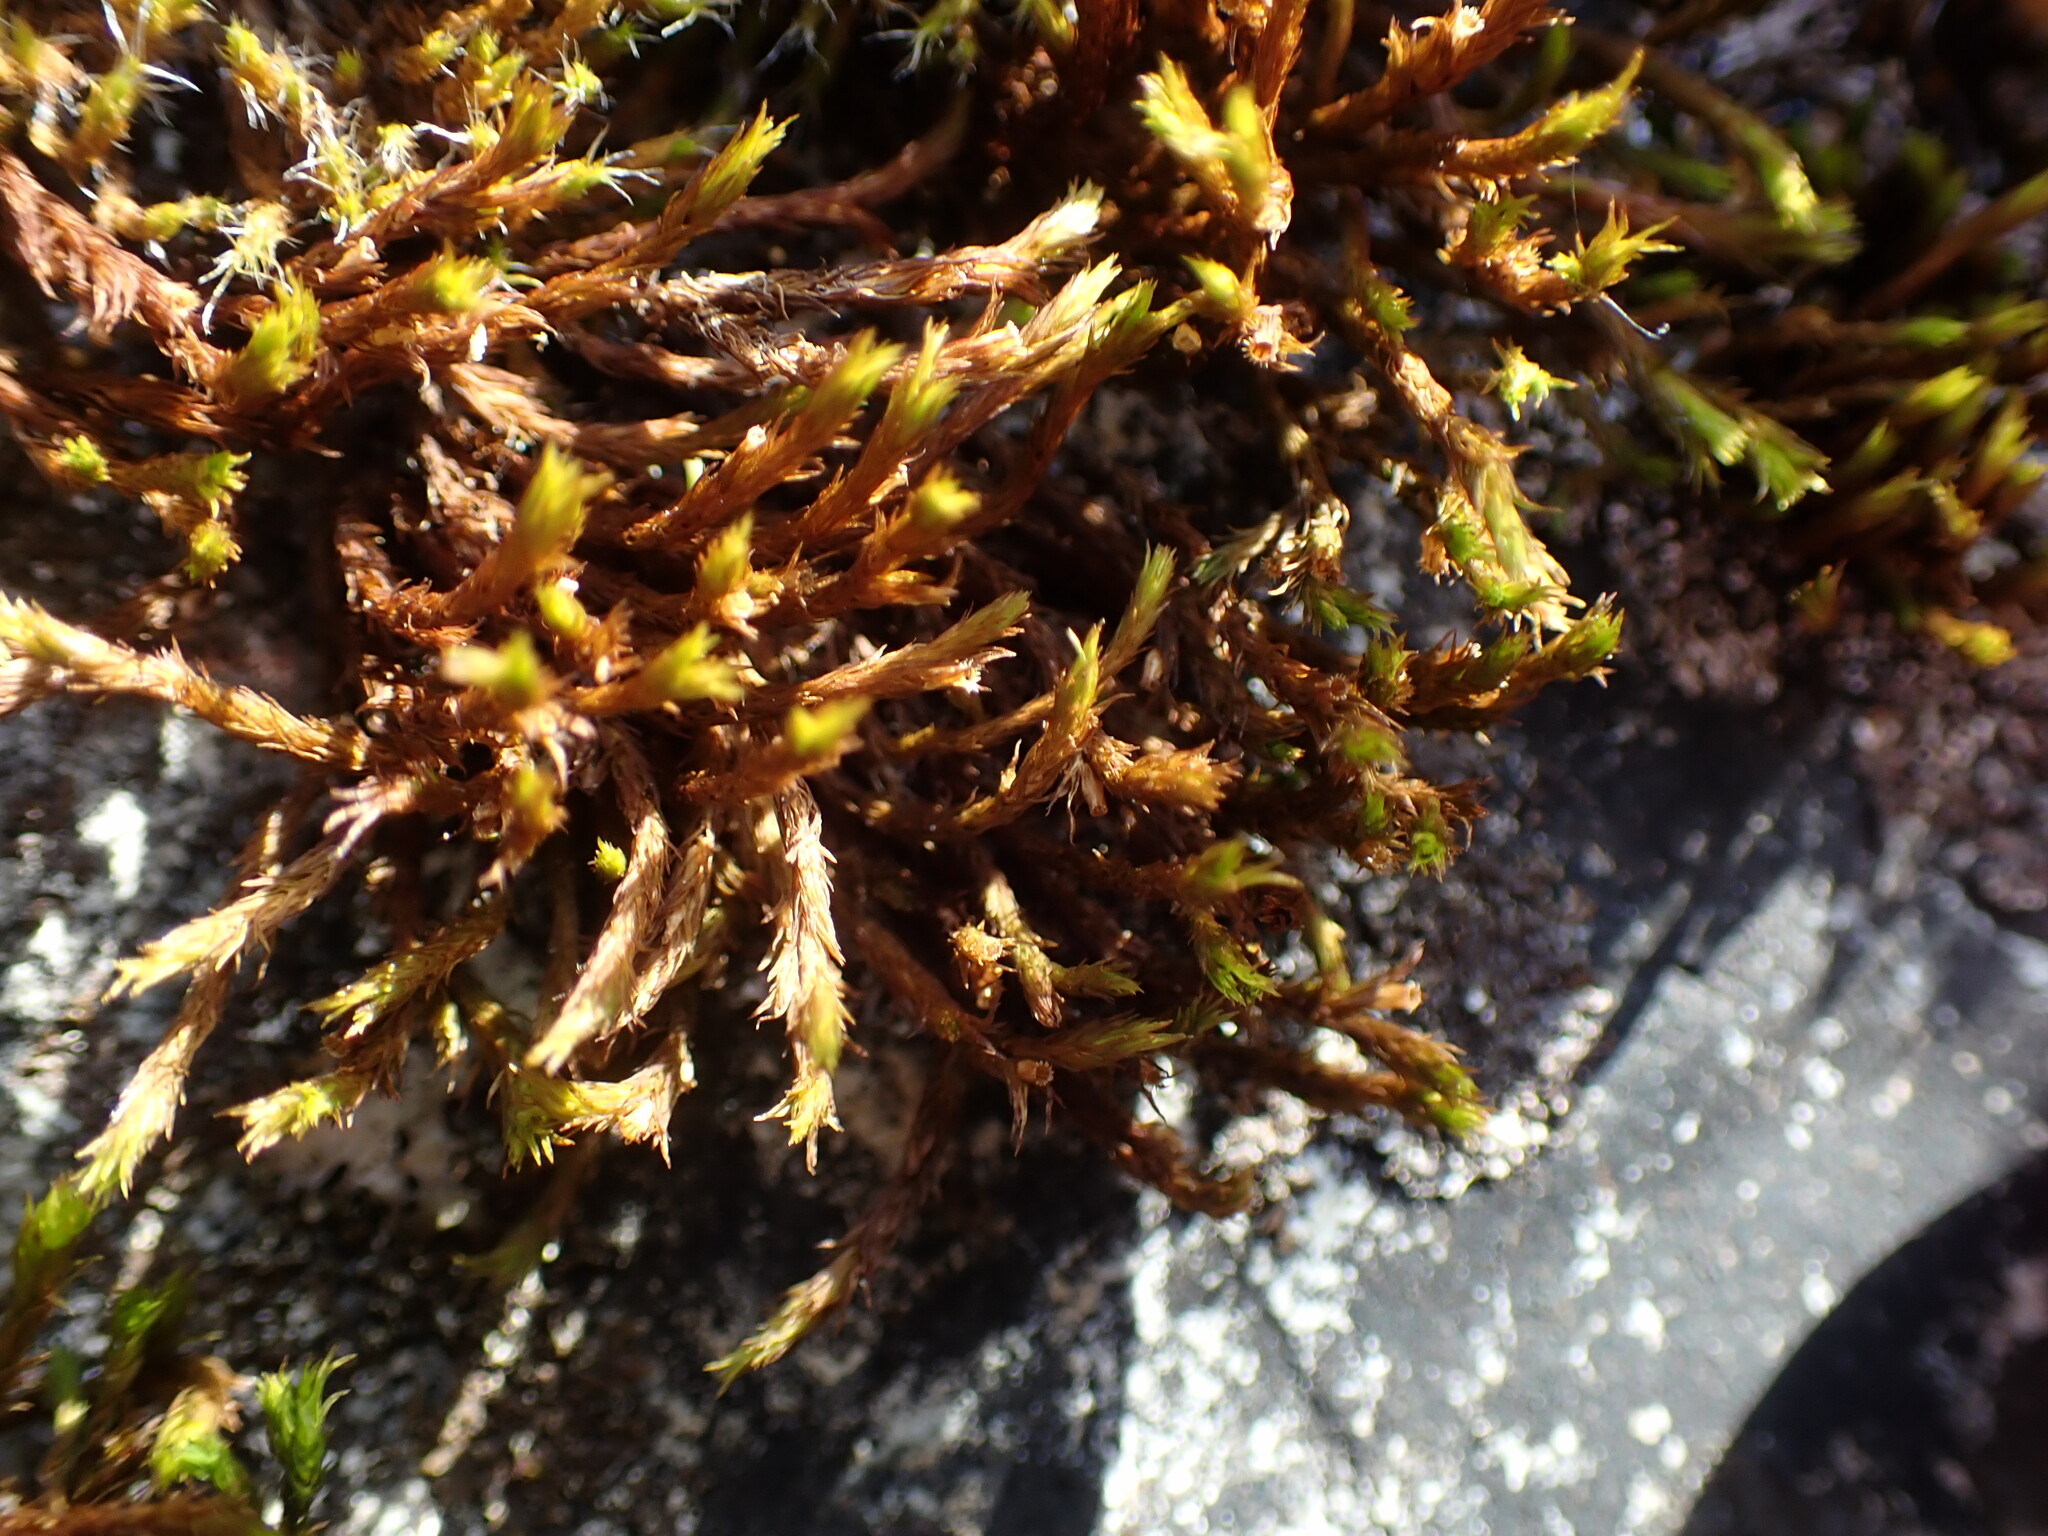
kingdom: Plantae
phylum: Bryophyta
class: Bryopsida
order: Orthotrichales
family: Orthotrichaceae
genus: Lewinskya
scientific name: Lewinskya rupestris
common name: Rock bristle-moss
